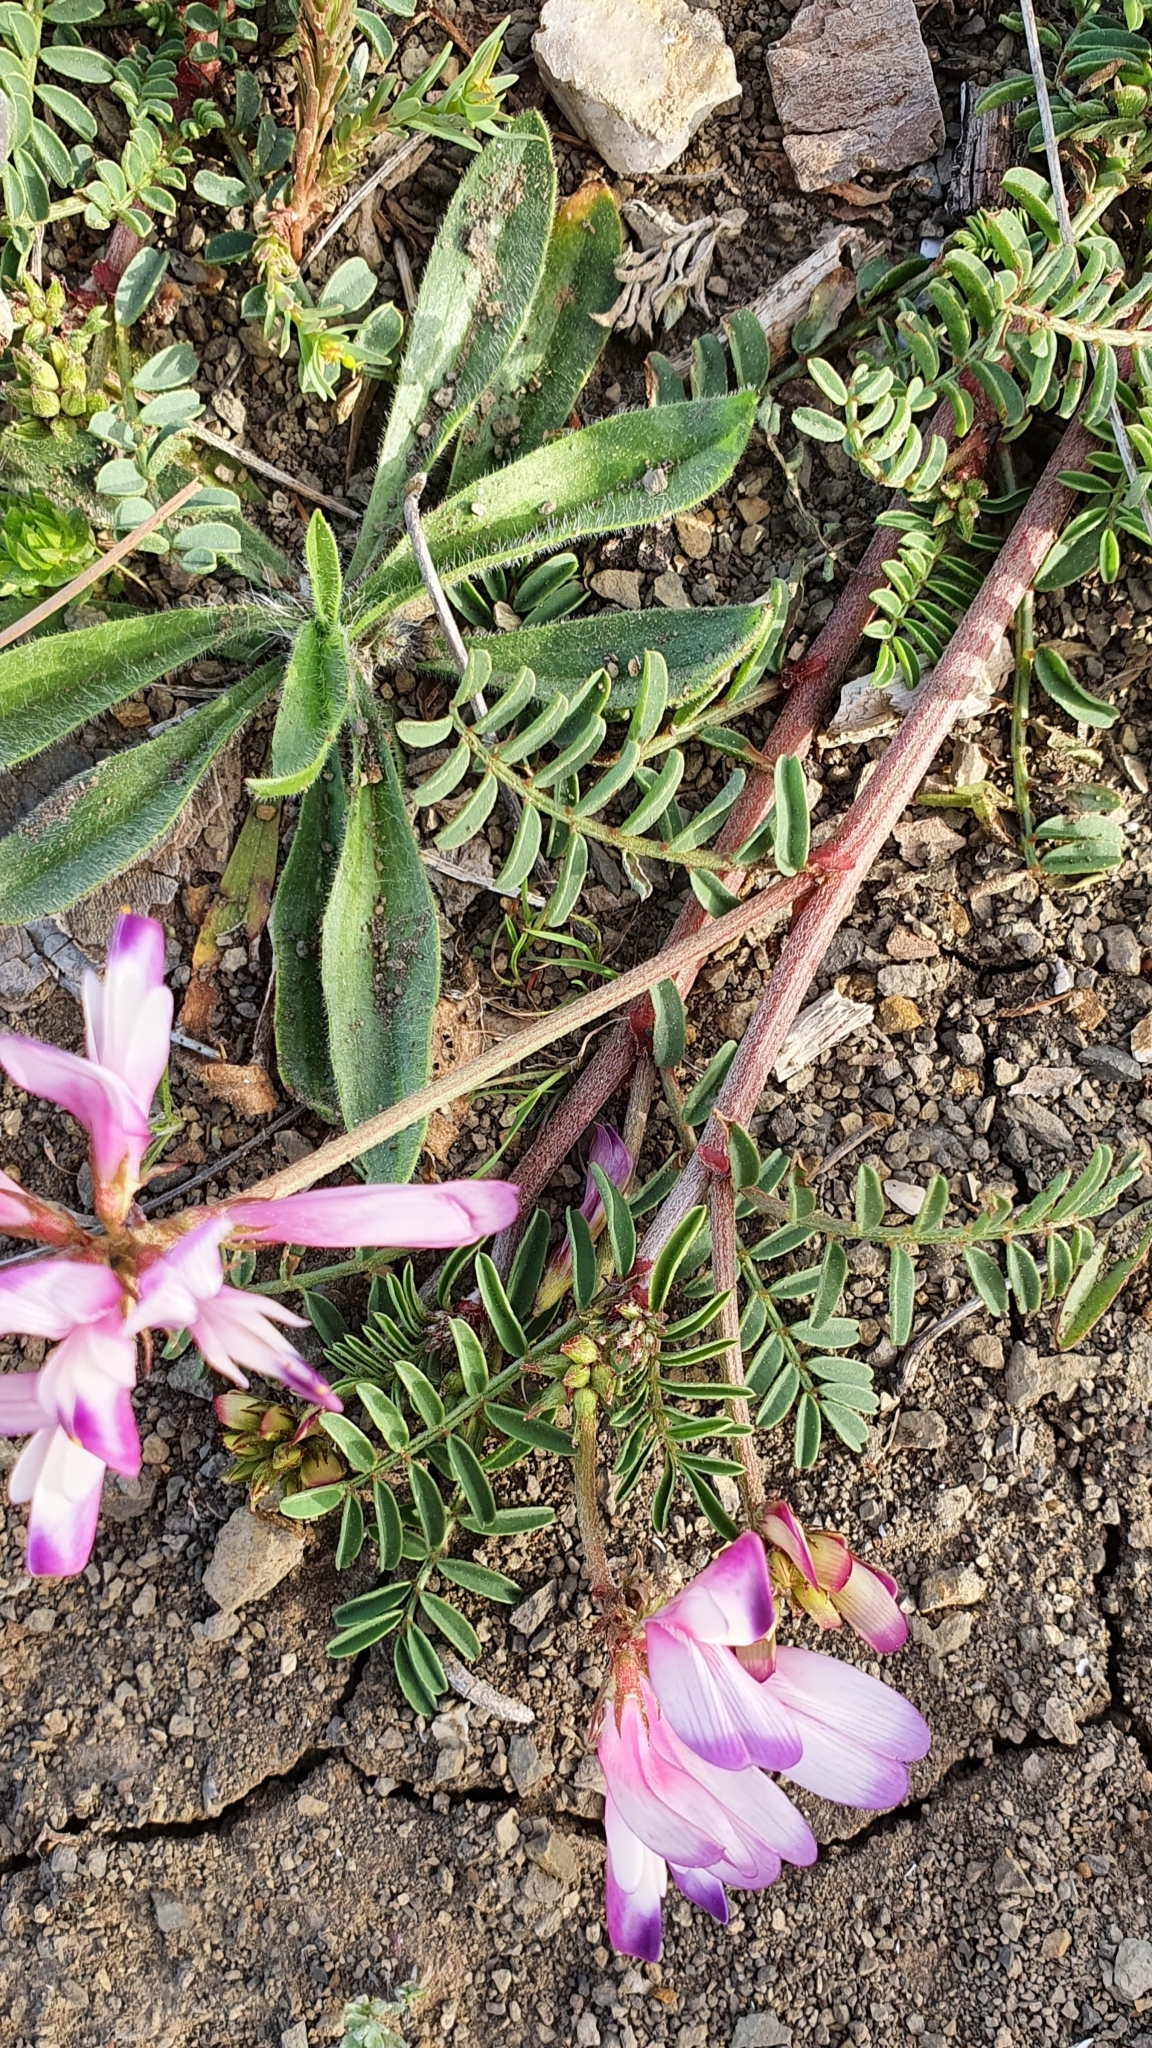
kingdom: Plantae
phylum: Tracheophyta
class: Magnoliopsida
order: Fabales
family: Fabaceae
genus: Sulla
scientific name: Sulla glomerata
